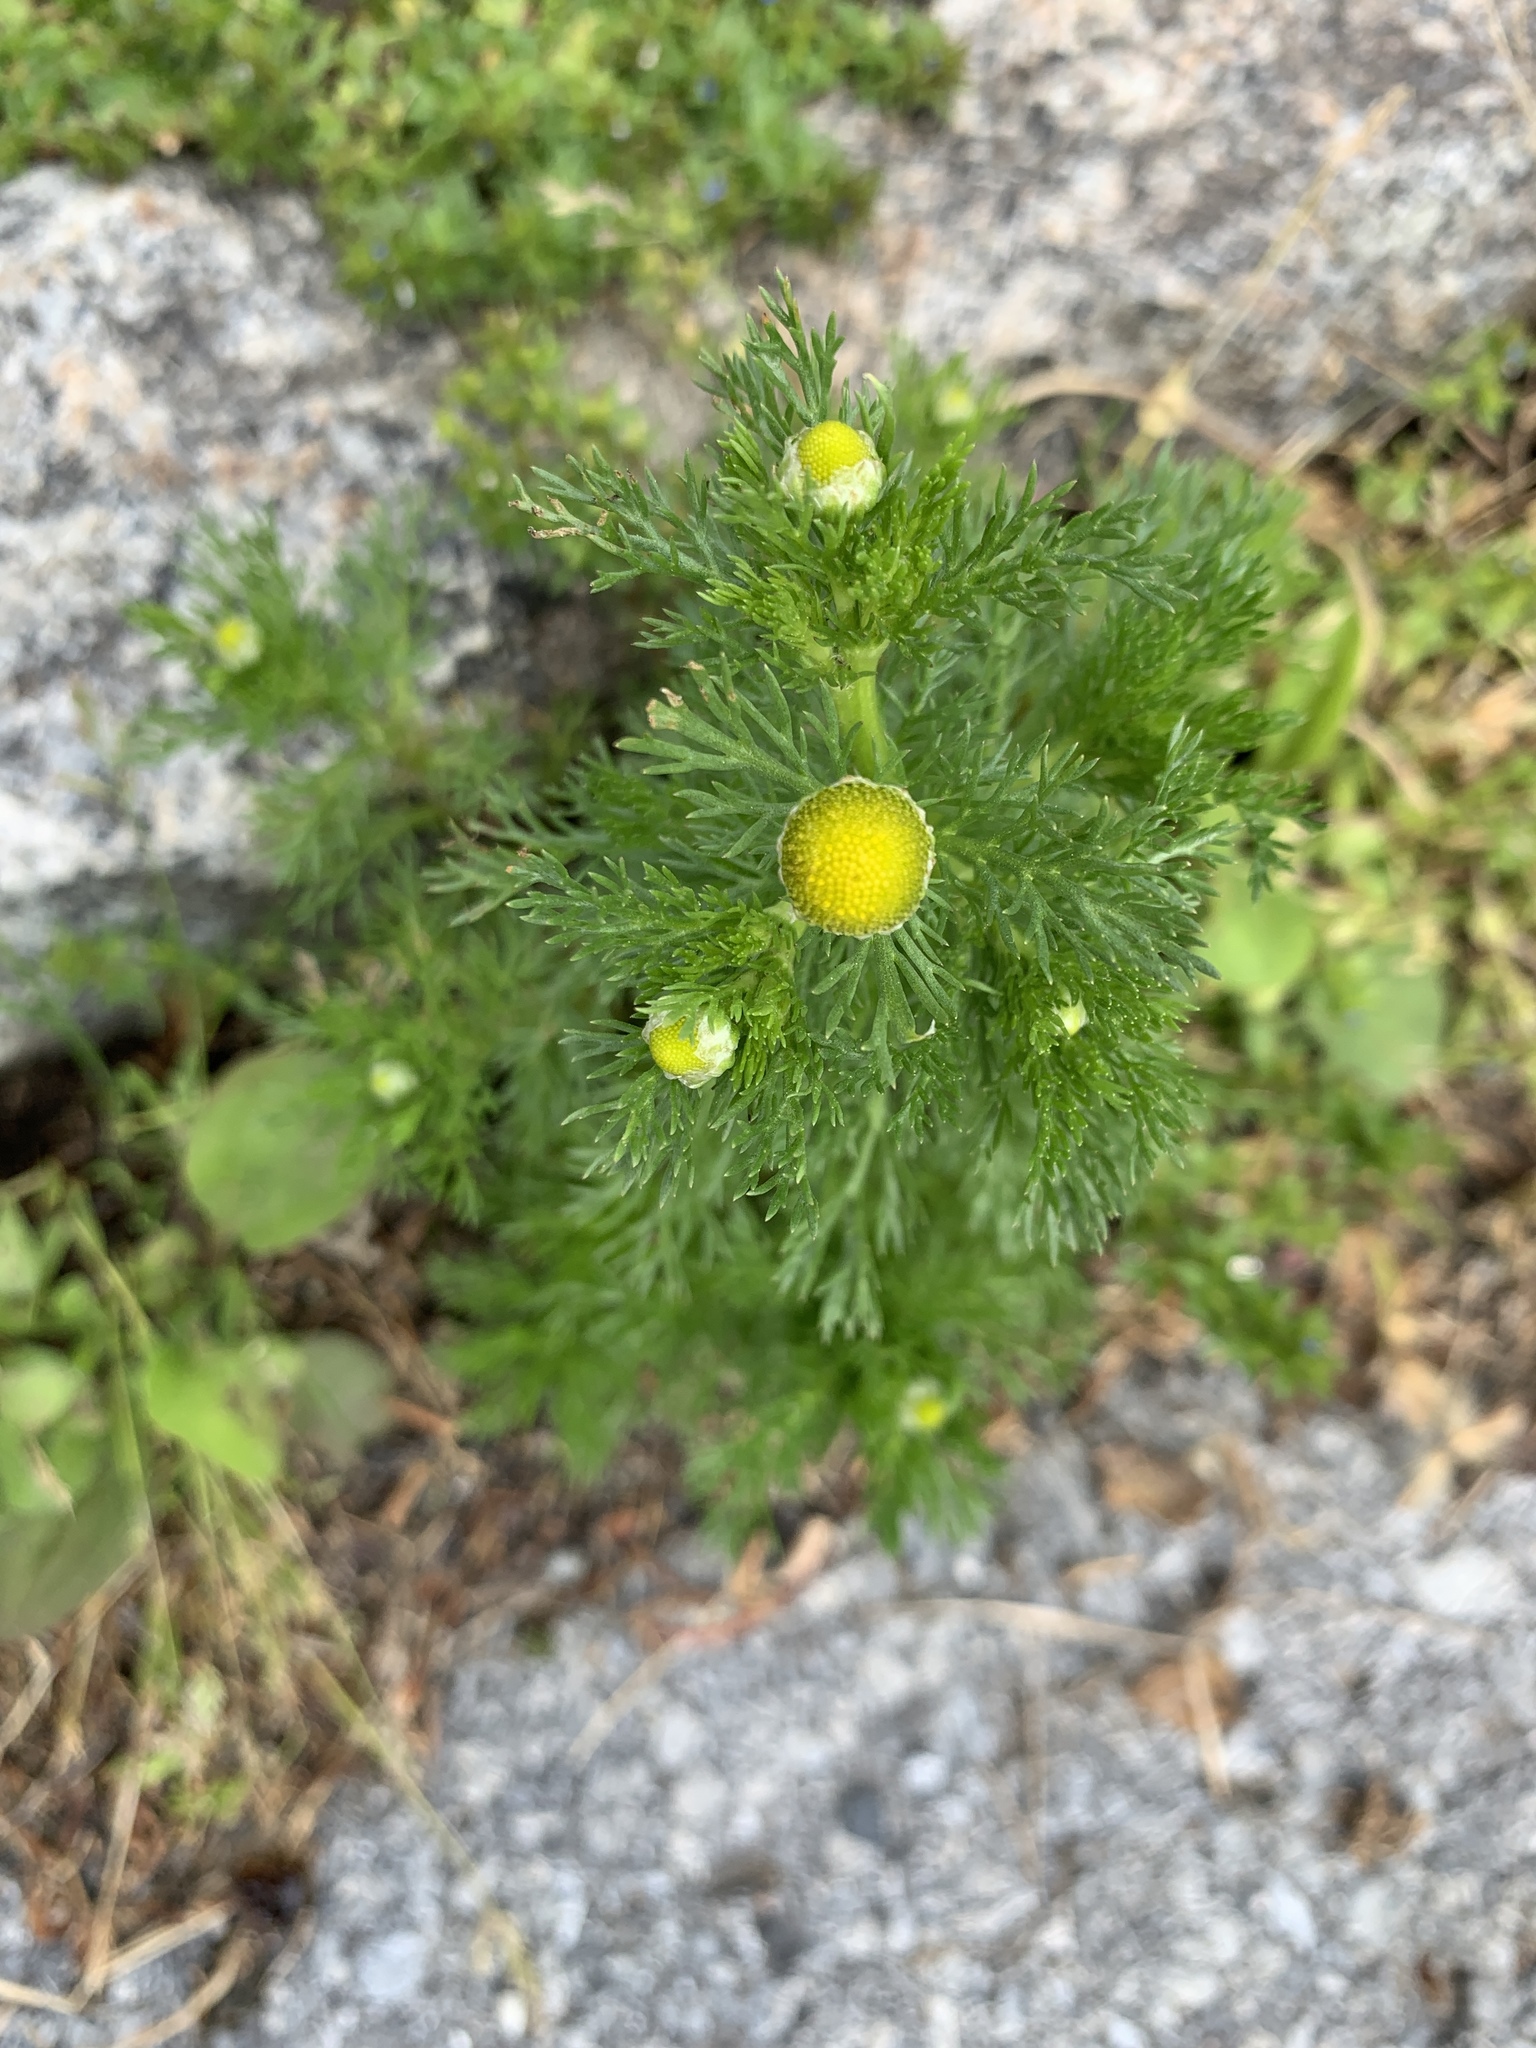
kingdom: Plantae
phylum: Tracheophyta
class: Magnoliopsida
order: Asterales
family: Asteraceae
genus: Matricaria
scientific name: Matricaria discoidea
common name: Disc mayweed
